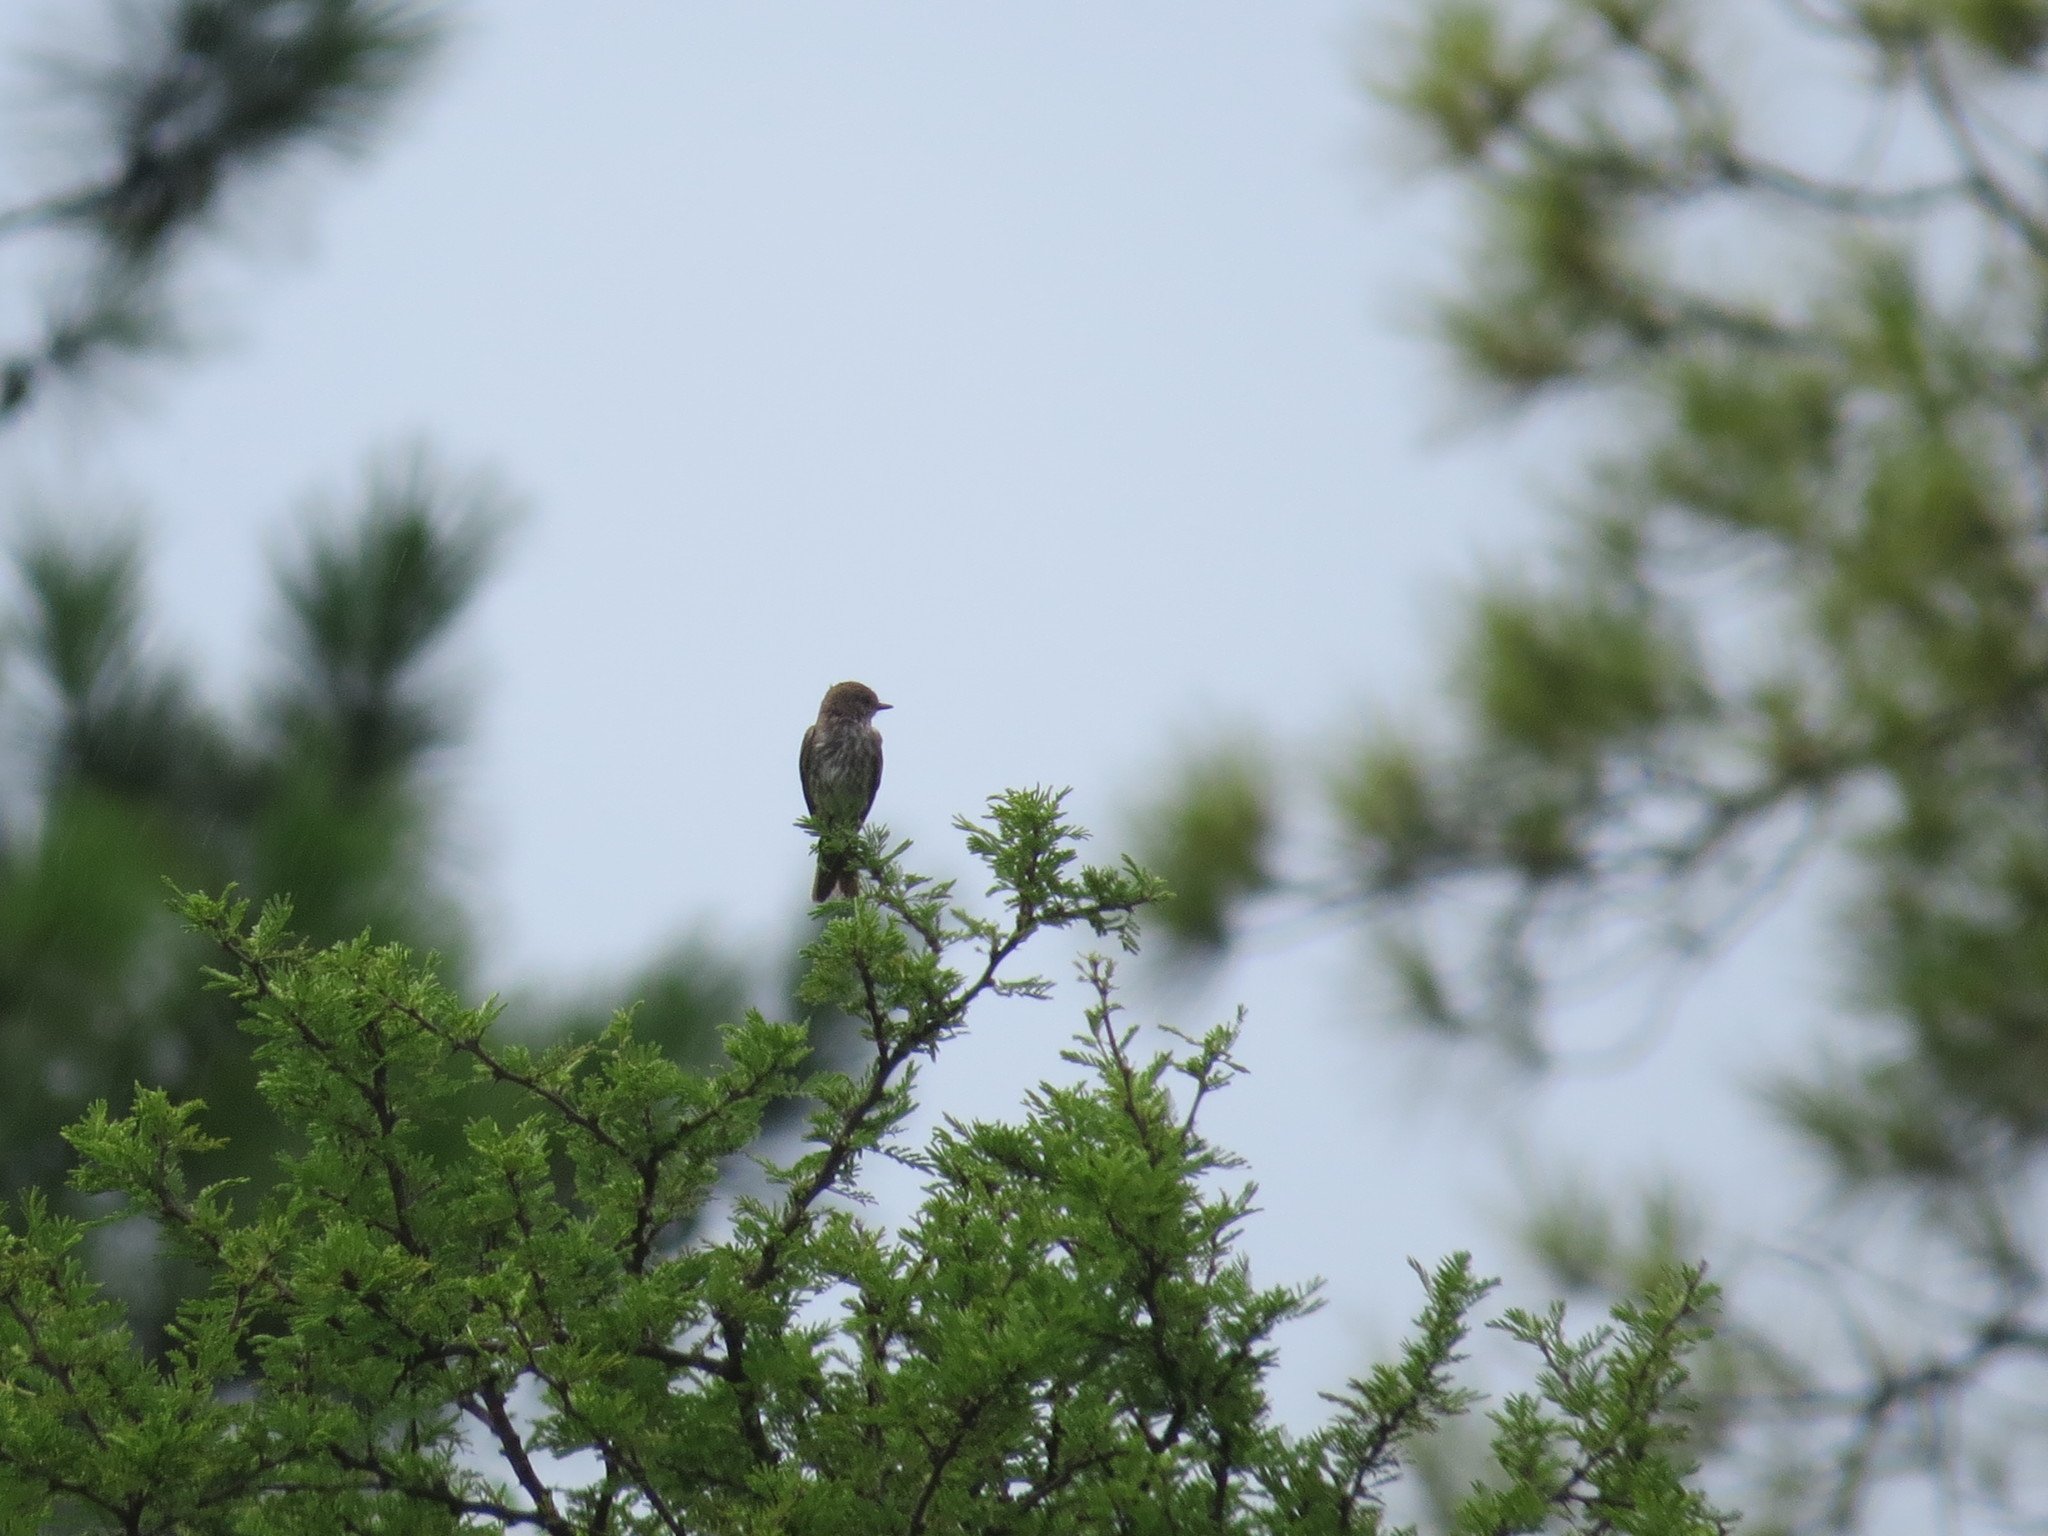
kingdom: Animalia
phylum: Chordata
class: Aves
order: Passeriformes
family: Tyrannidae
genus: Pyrocephalus
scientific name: Pyrocephalus rubinus
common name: Vermilion flycatcher
